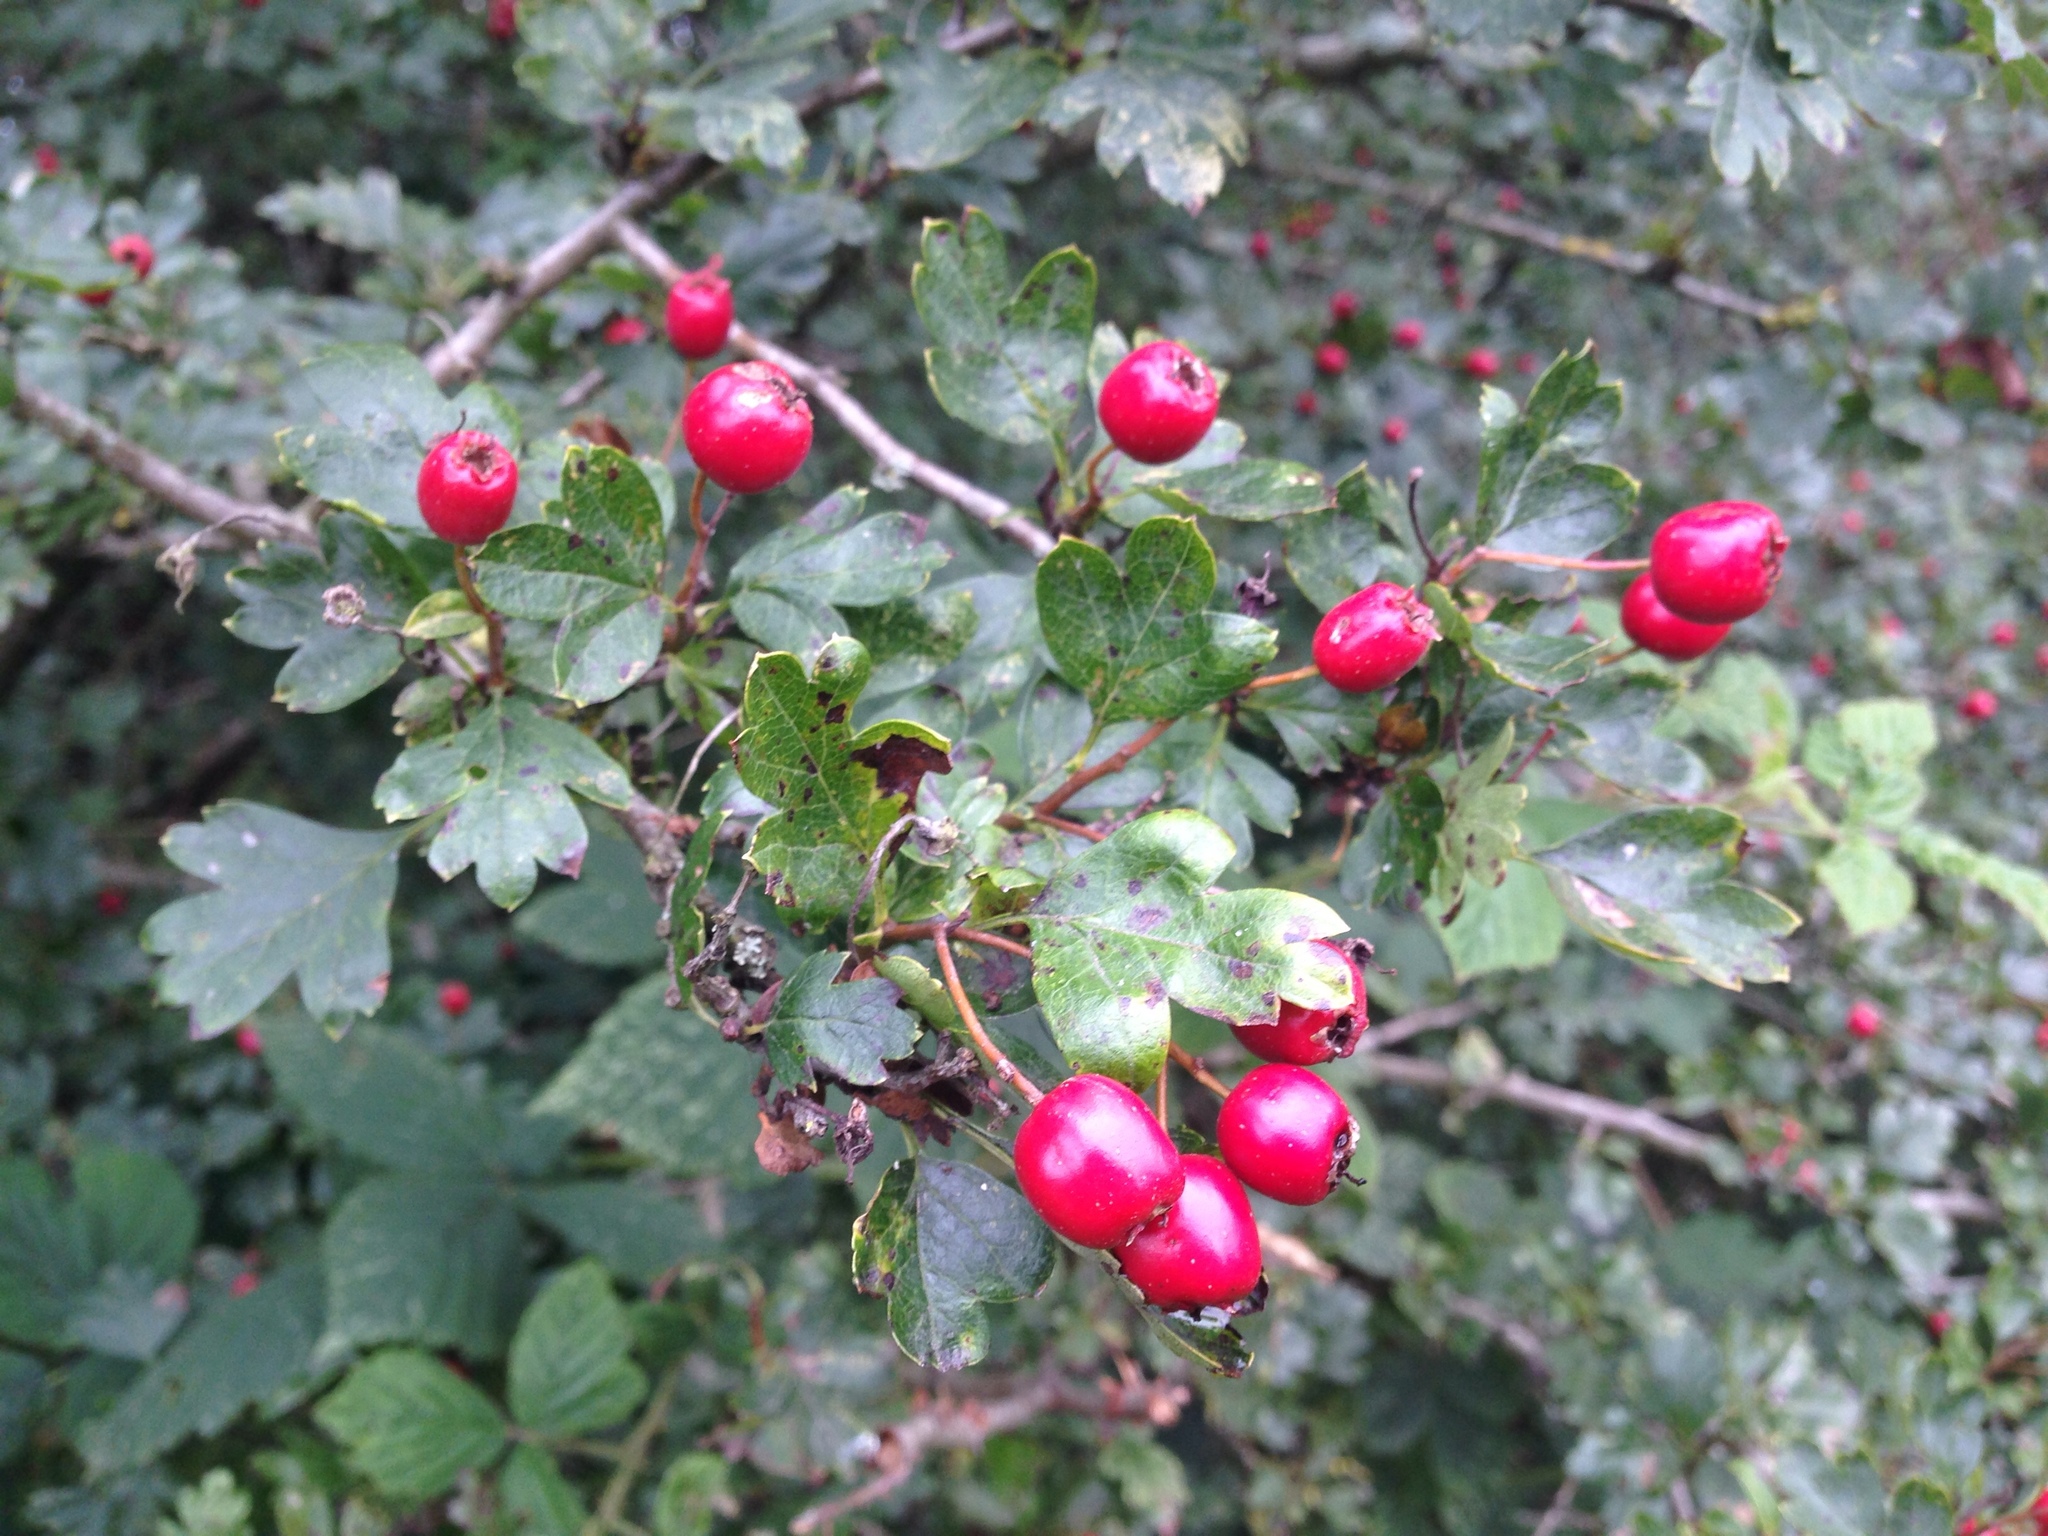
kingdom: Plantae
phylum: Tracheophyta
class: Magnoliopsida
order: Rosales
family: Rosaceae
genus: Crataegus
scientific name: Crataegus monogyna
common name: Hawthorn
